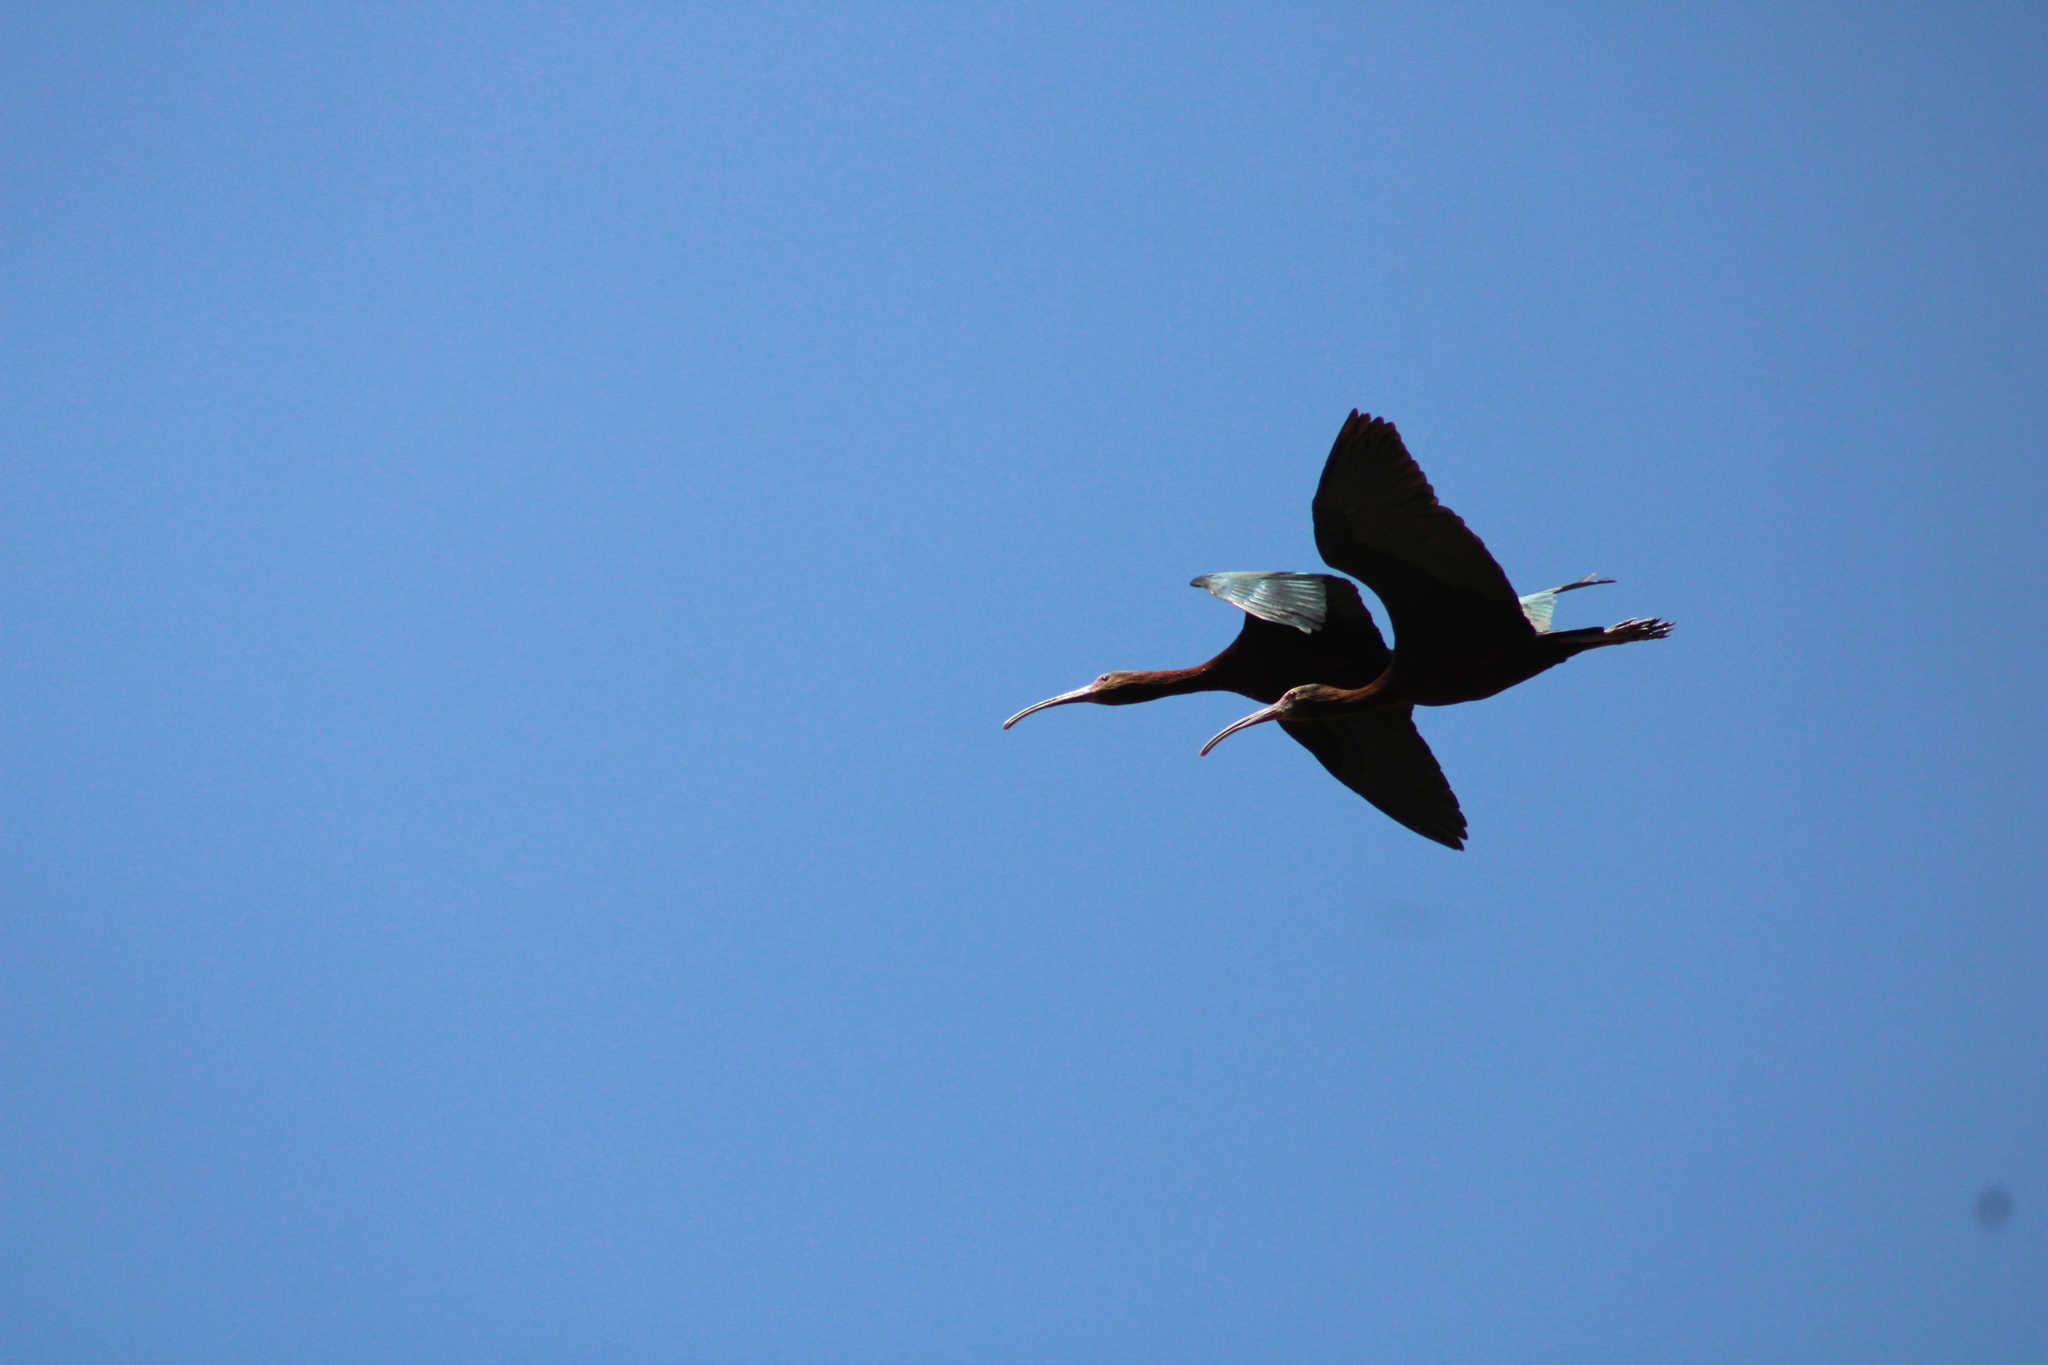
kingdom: Animalia
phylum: Chordata
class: Aves
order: Pelecaniformes
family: Threskiornithidae
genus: Plegadis
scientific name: Plegadis chihi
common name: White-faced ibis
